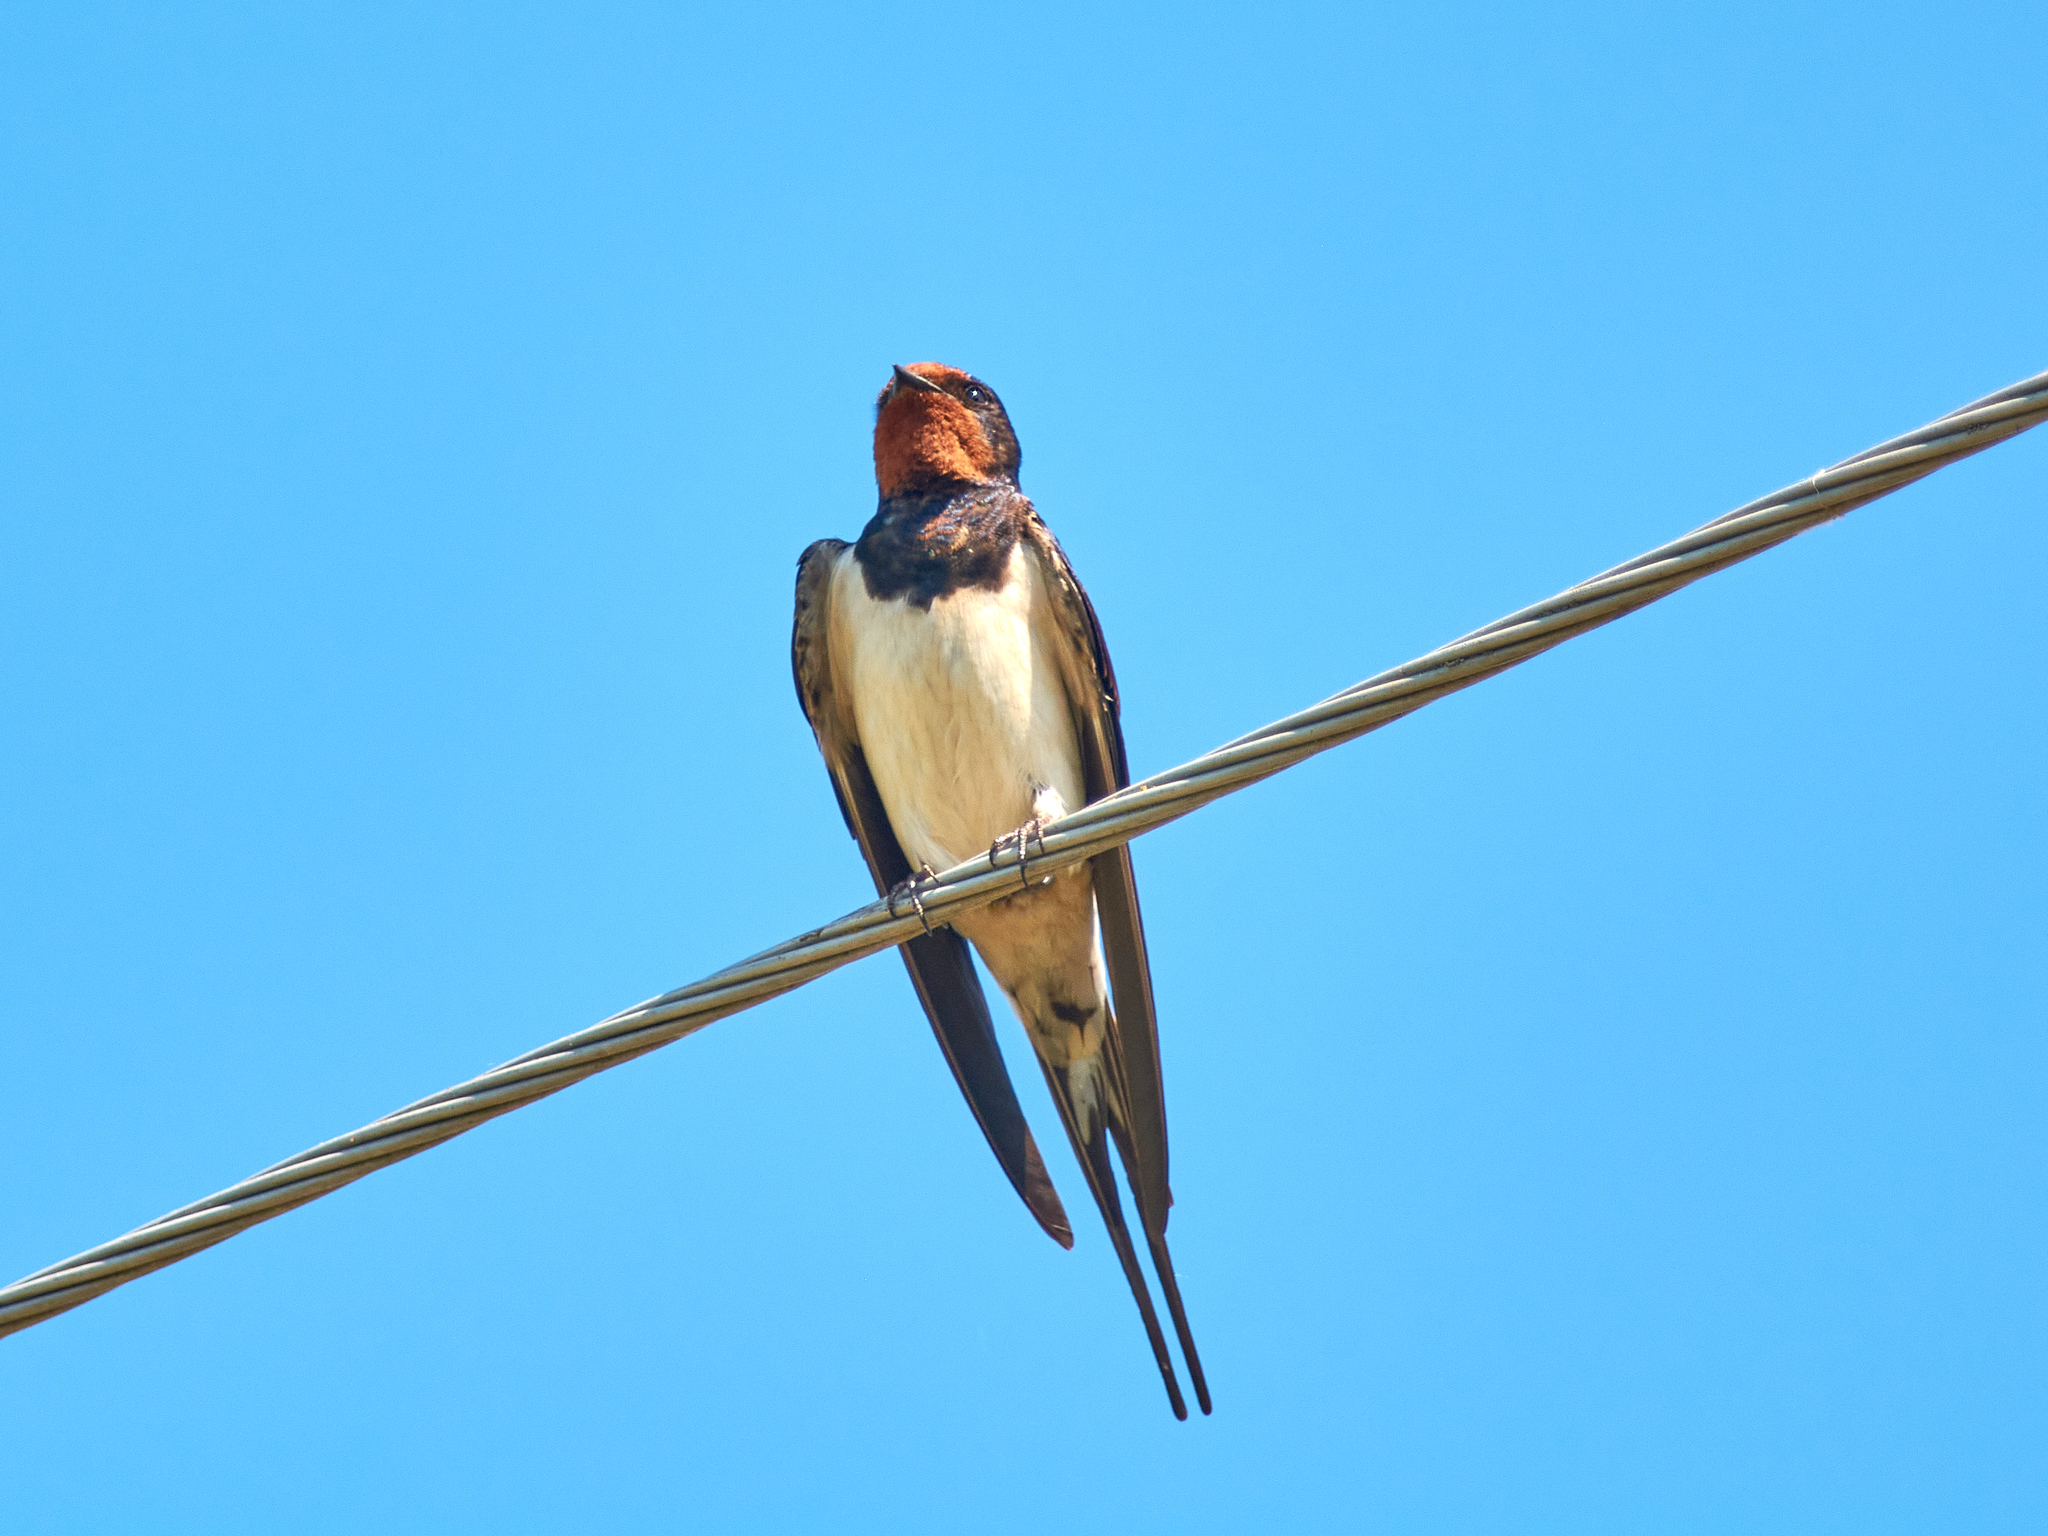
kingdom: Animalia
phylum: Chordata
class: Aves
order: Passeriformes
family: Hirundinidae
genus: Hirundo
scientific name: Hirundo rustica
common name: Barn swallow
